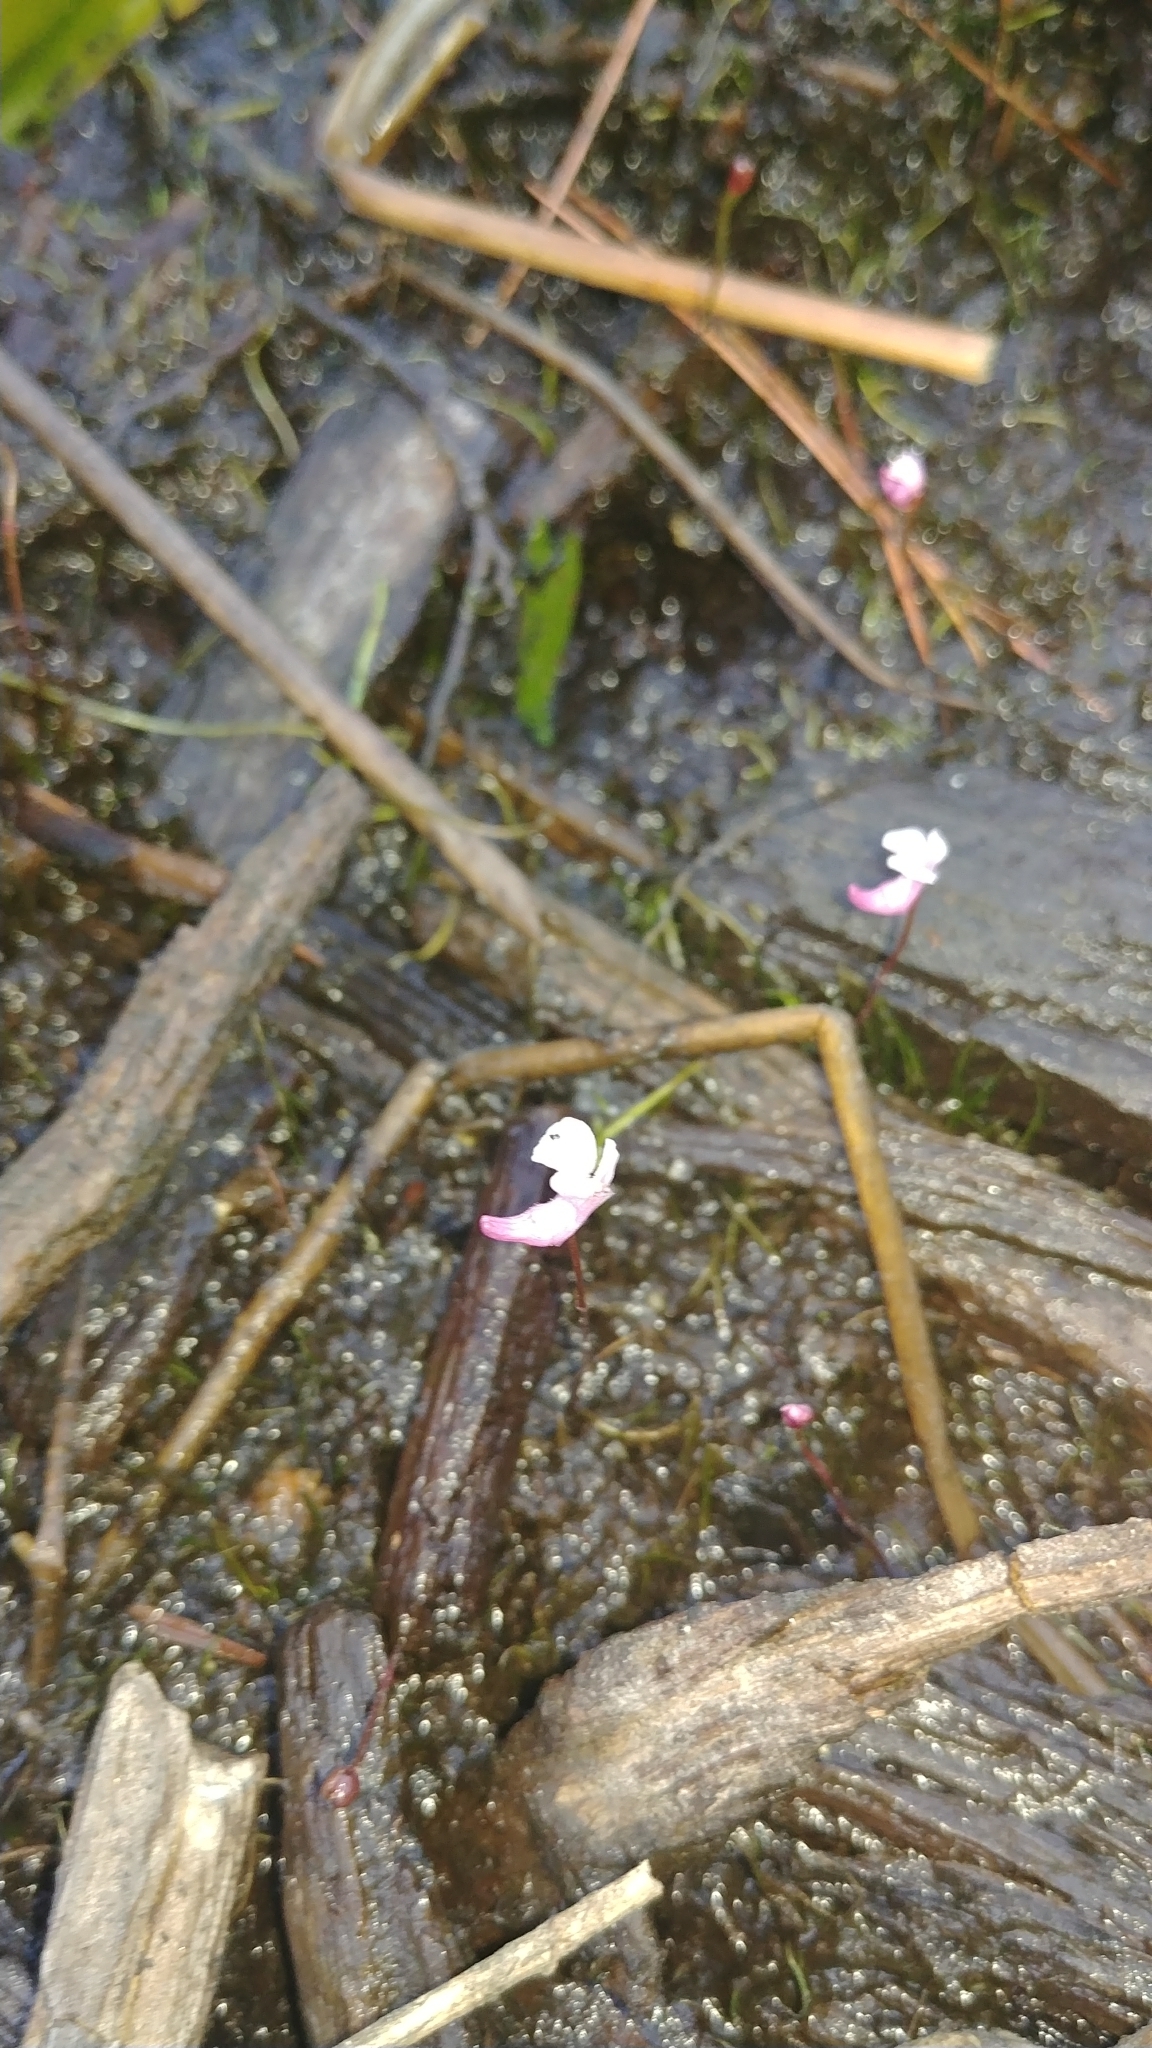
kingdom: Plantae
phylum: Tracheophyta
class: Magnoliopsida
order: Lamiales
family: Lentibulariaceae
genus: Utricularia
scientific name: Utricularia resupinata
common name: Northeastern bladderwort
